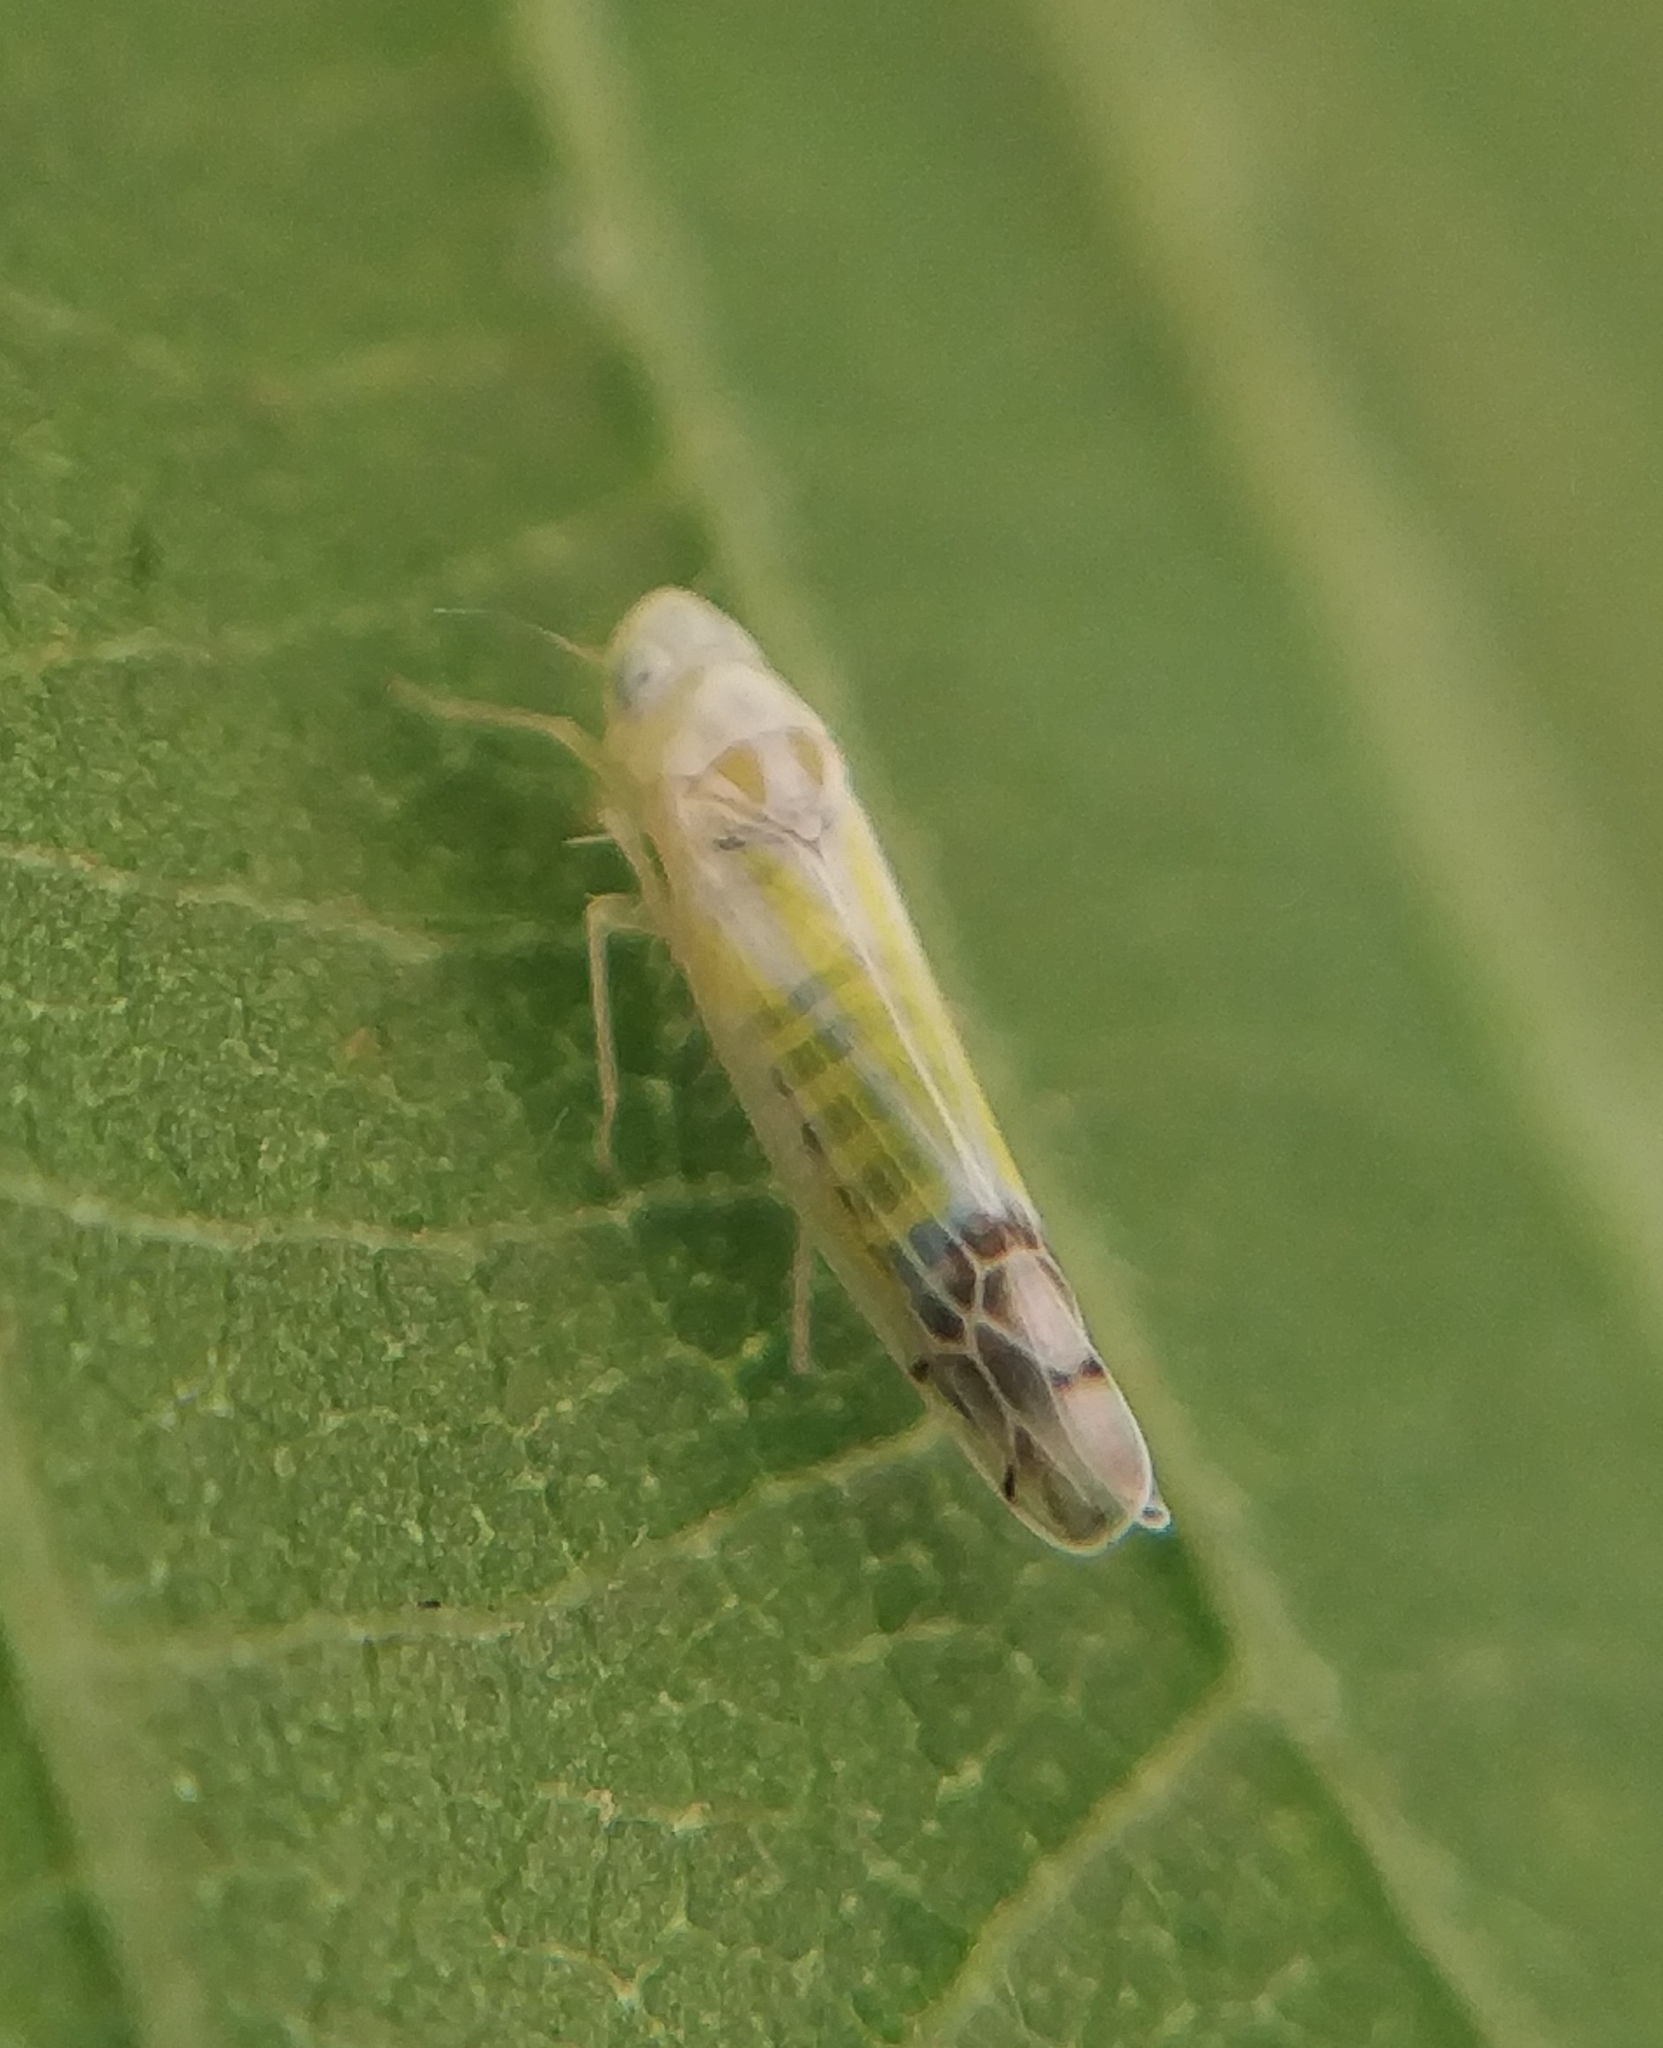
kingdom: Animalia
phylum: Arthropoda
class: Insecta
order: Hemiptera
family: Cicadellidae
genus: Ribautiana
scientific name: Ribautiana tenerrima
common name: Bramble leafhopper
